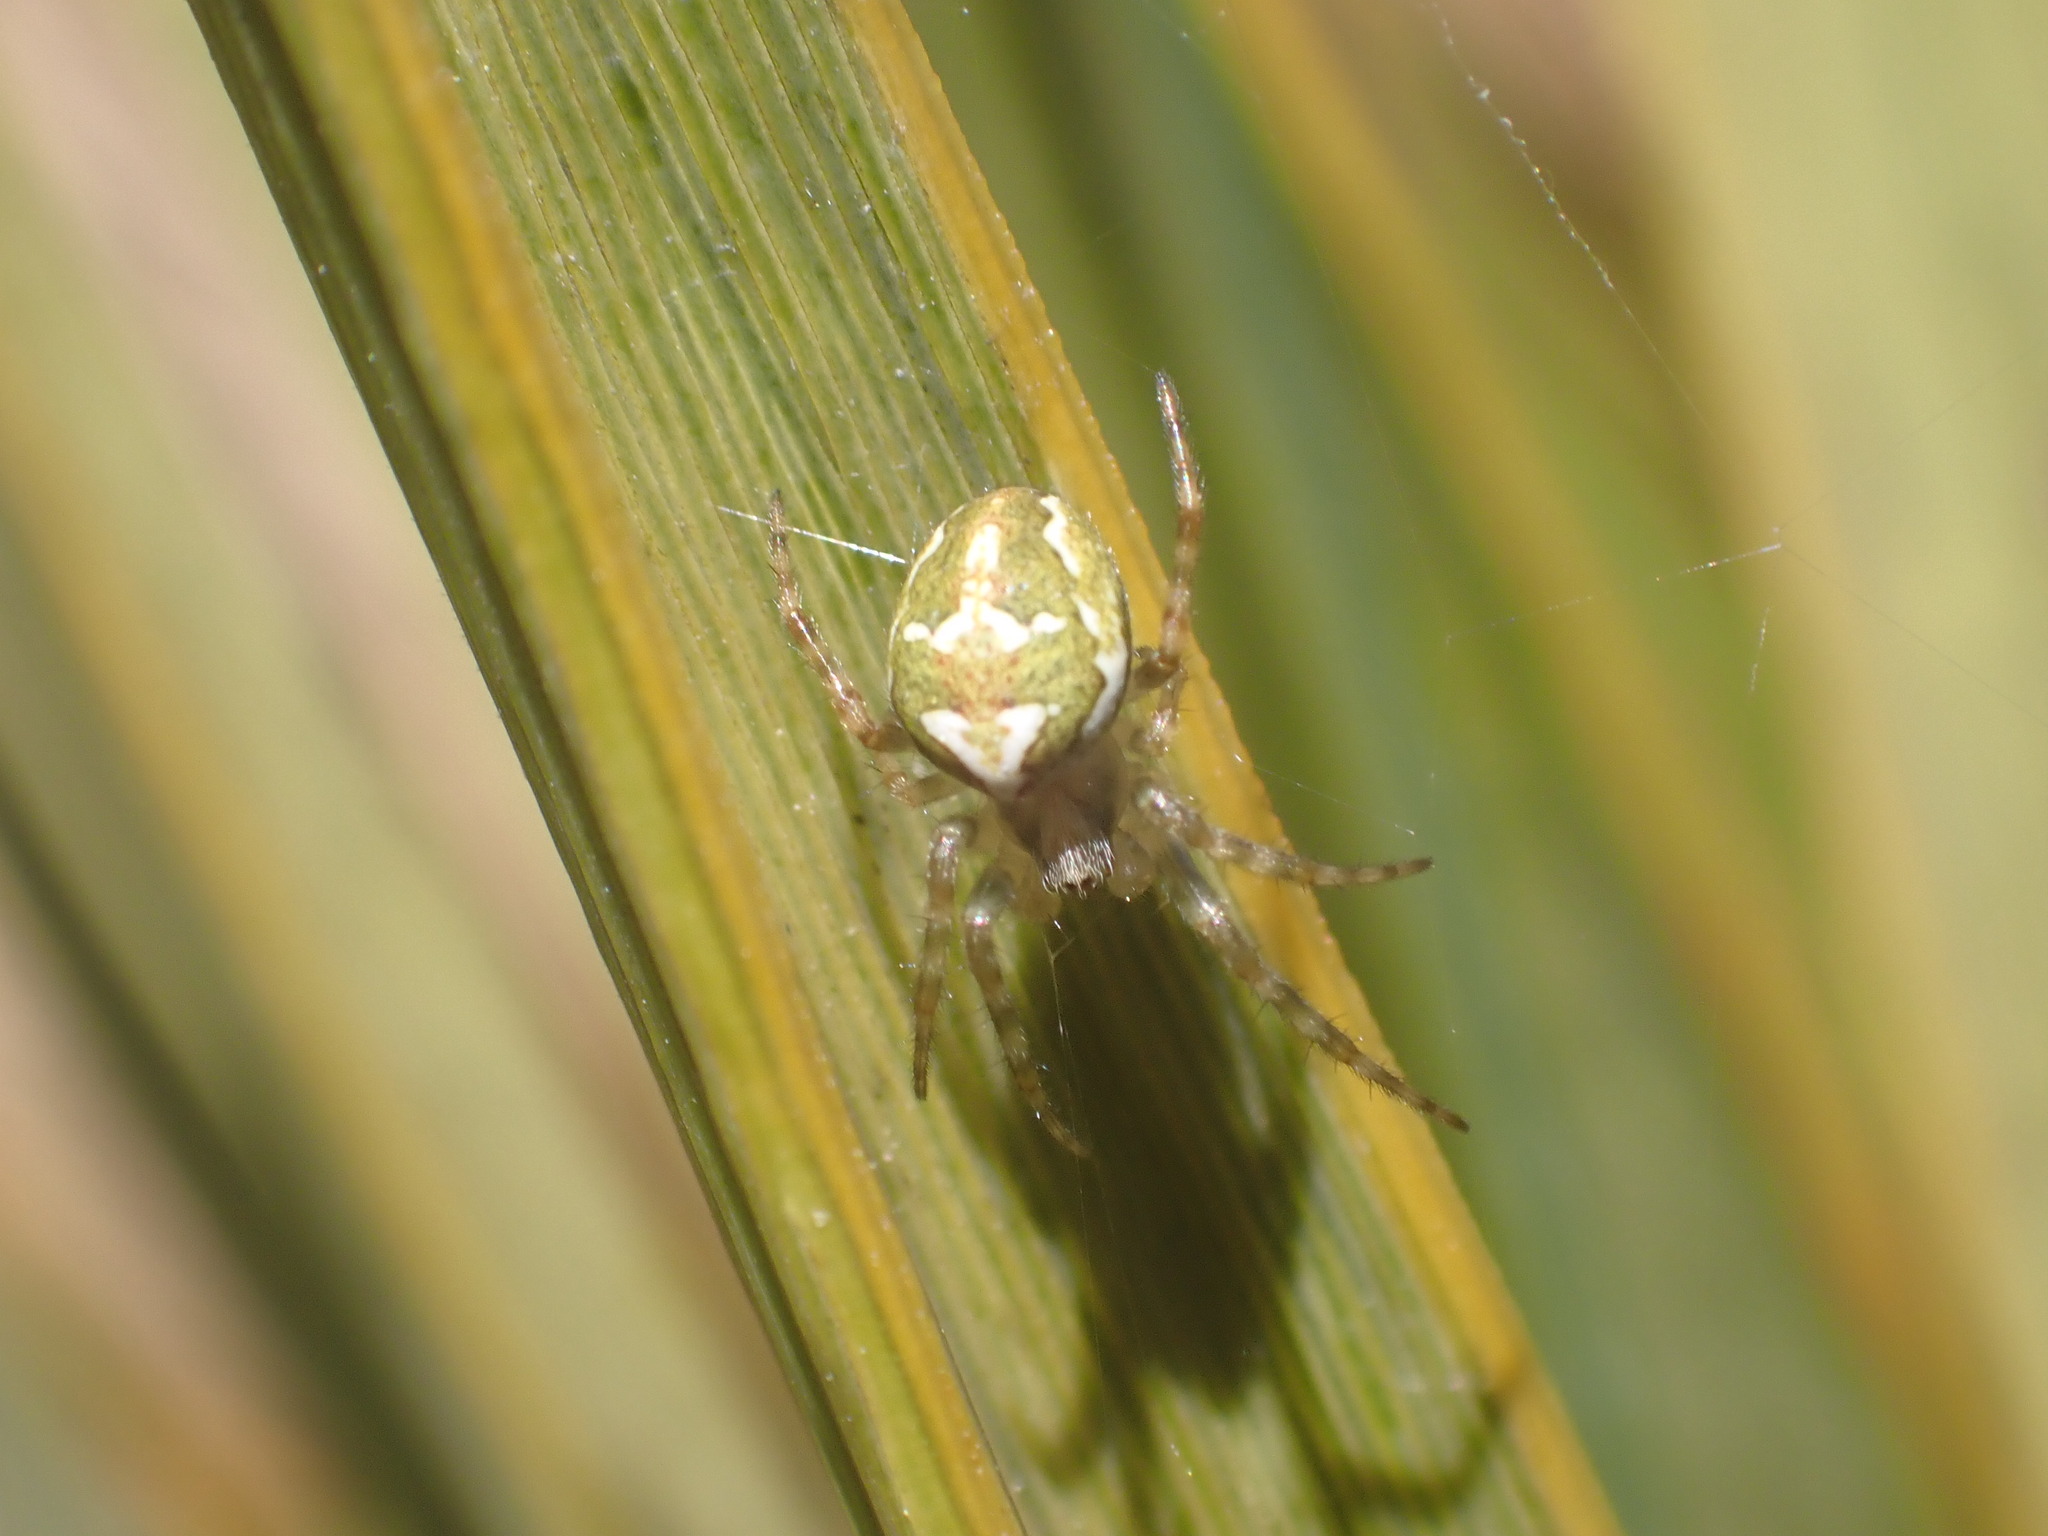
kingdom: Animalia
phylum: Arthropoda
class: Arachnida
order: Araneae
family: Araneidae
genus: Colaranea
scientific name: Colaranea verutum
